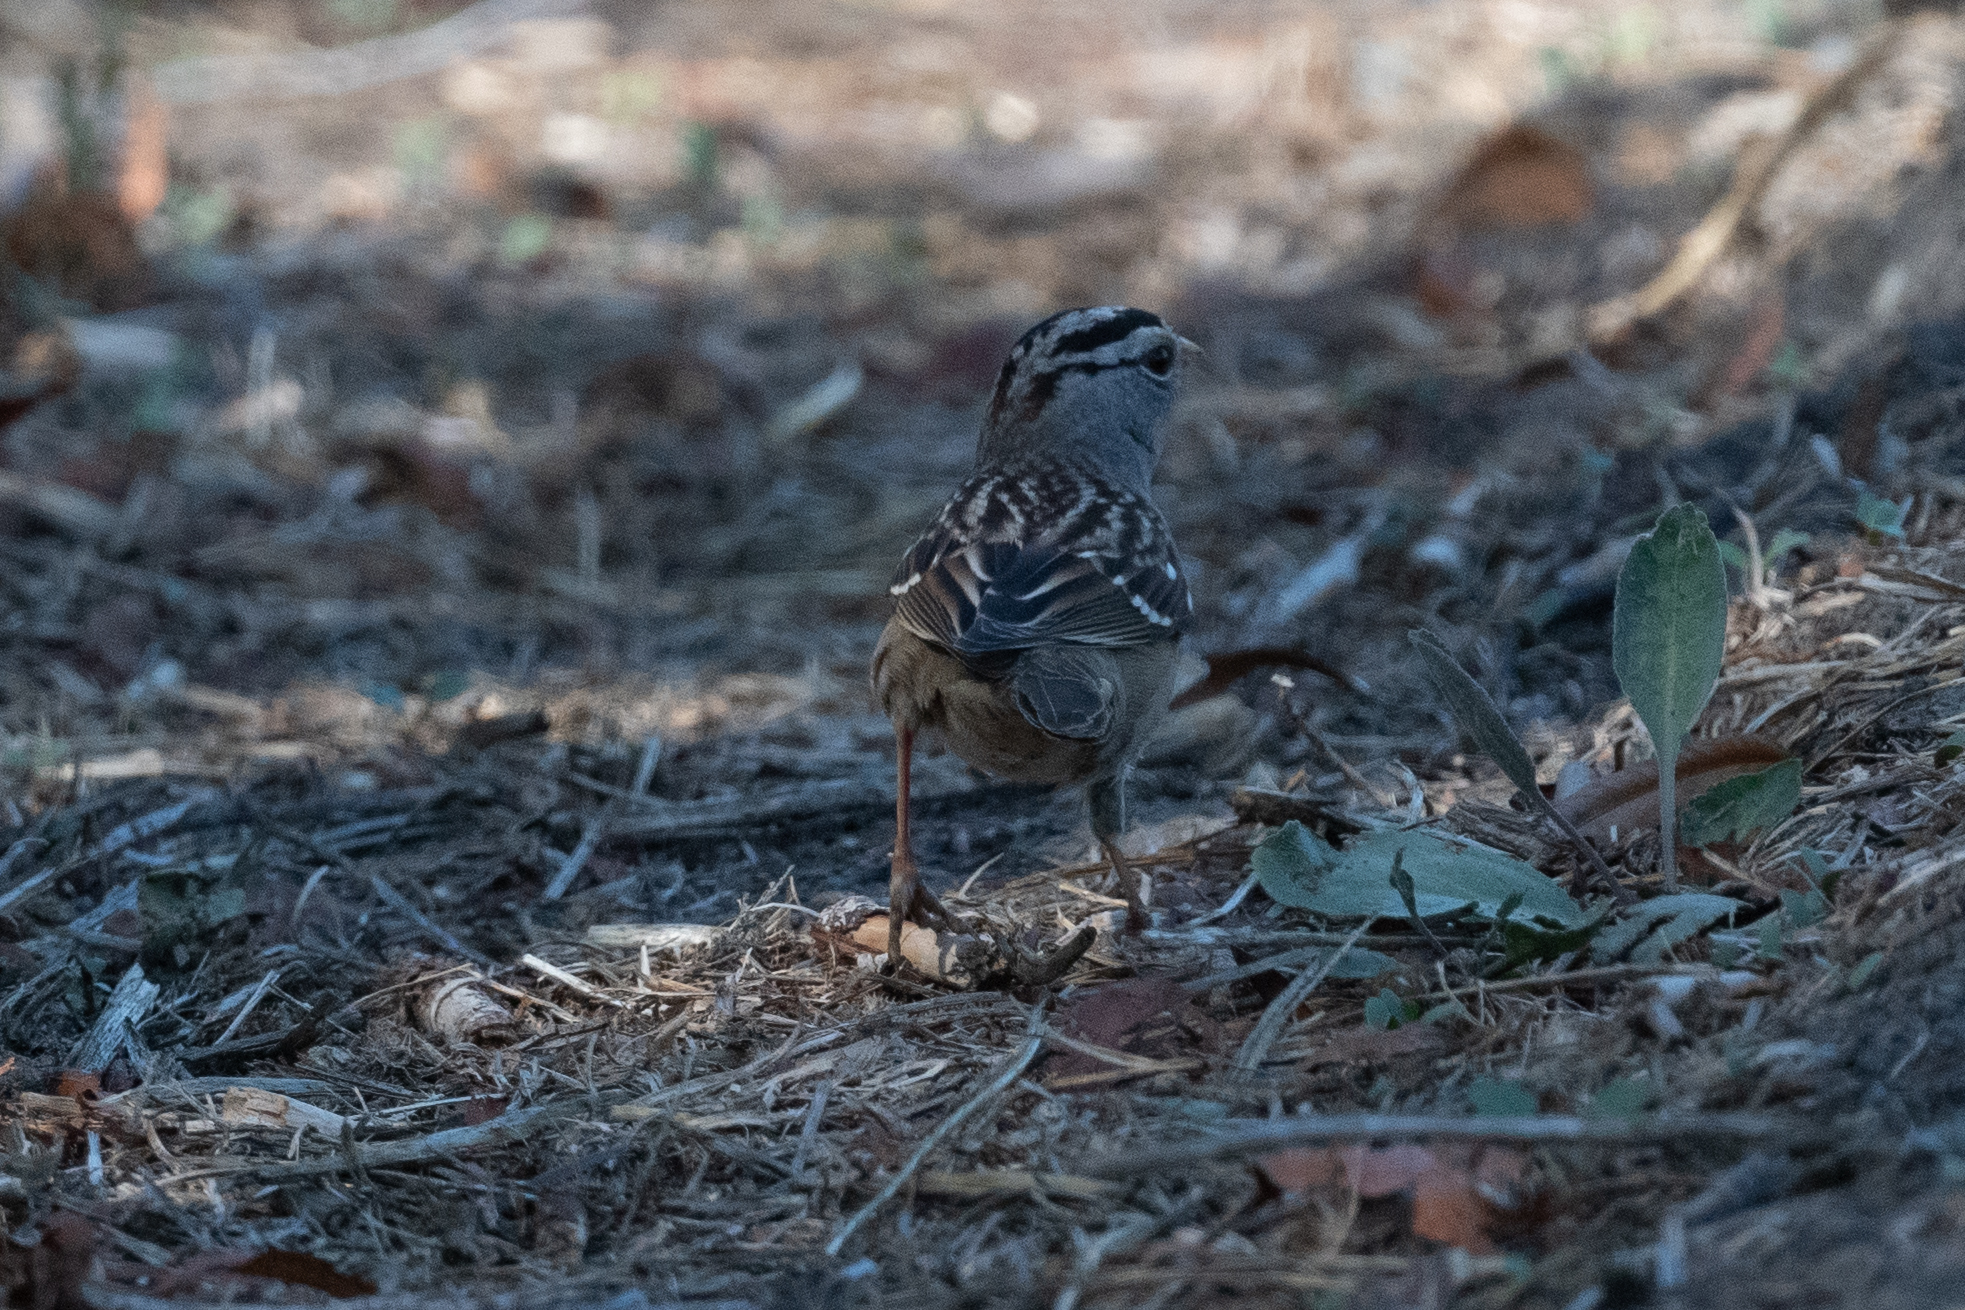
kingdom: Animalia
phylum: Chordata
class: Aves
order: Passeriformes
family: Passerellidae
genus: Zonotrichia
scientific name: Zonotrichia leucophrys
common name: White-crowned sparrow
